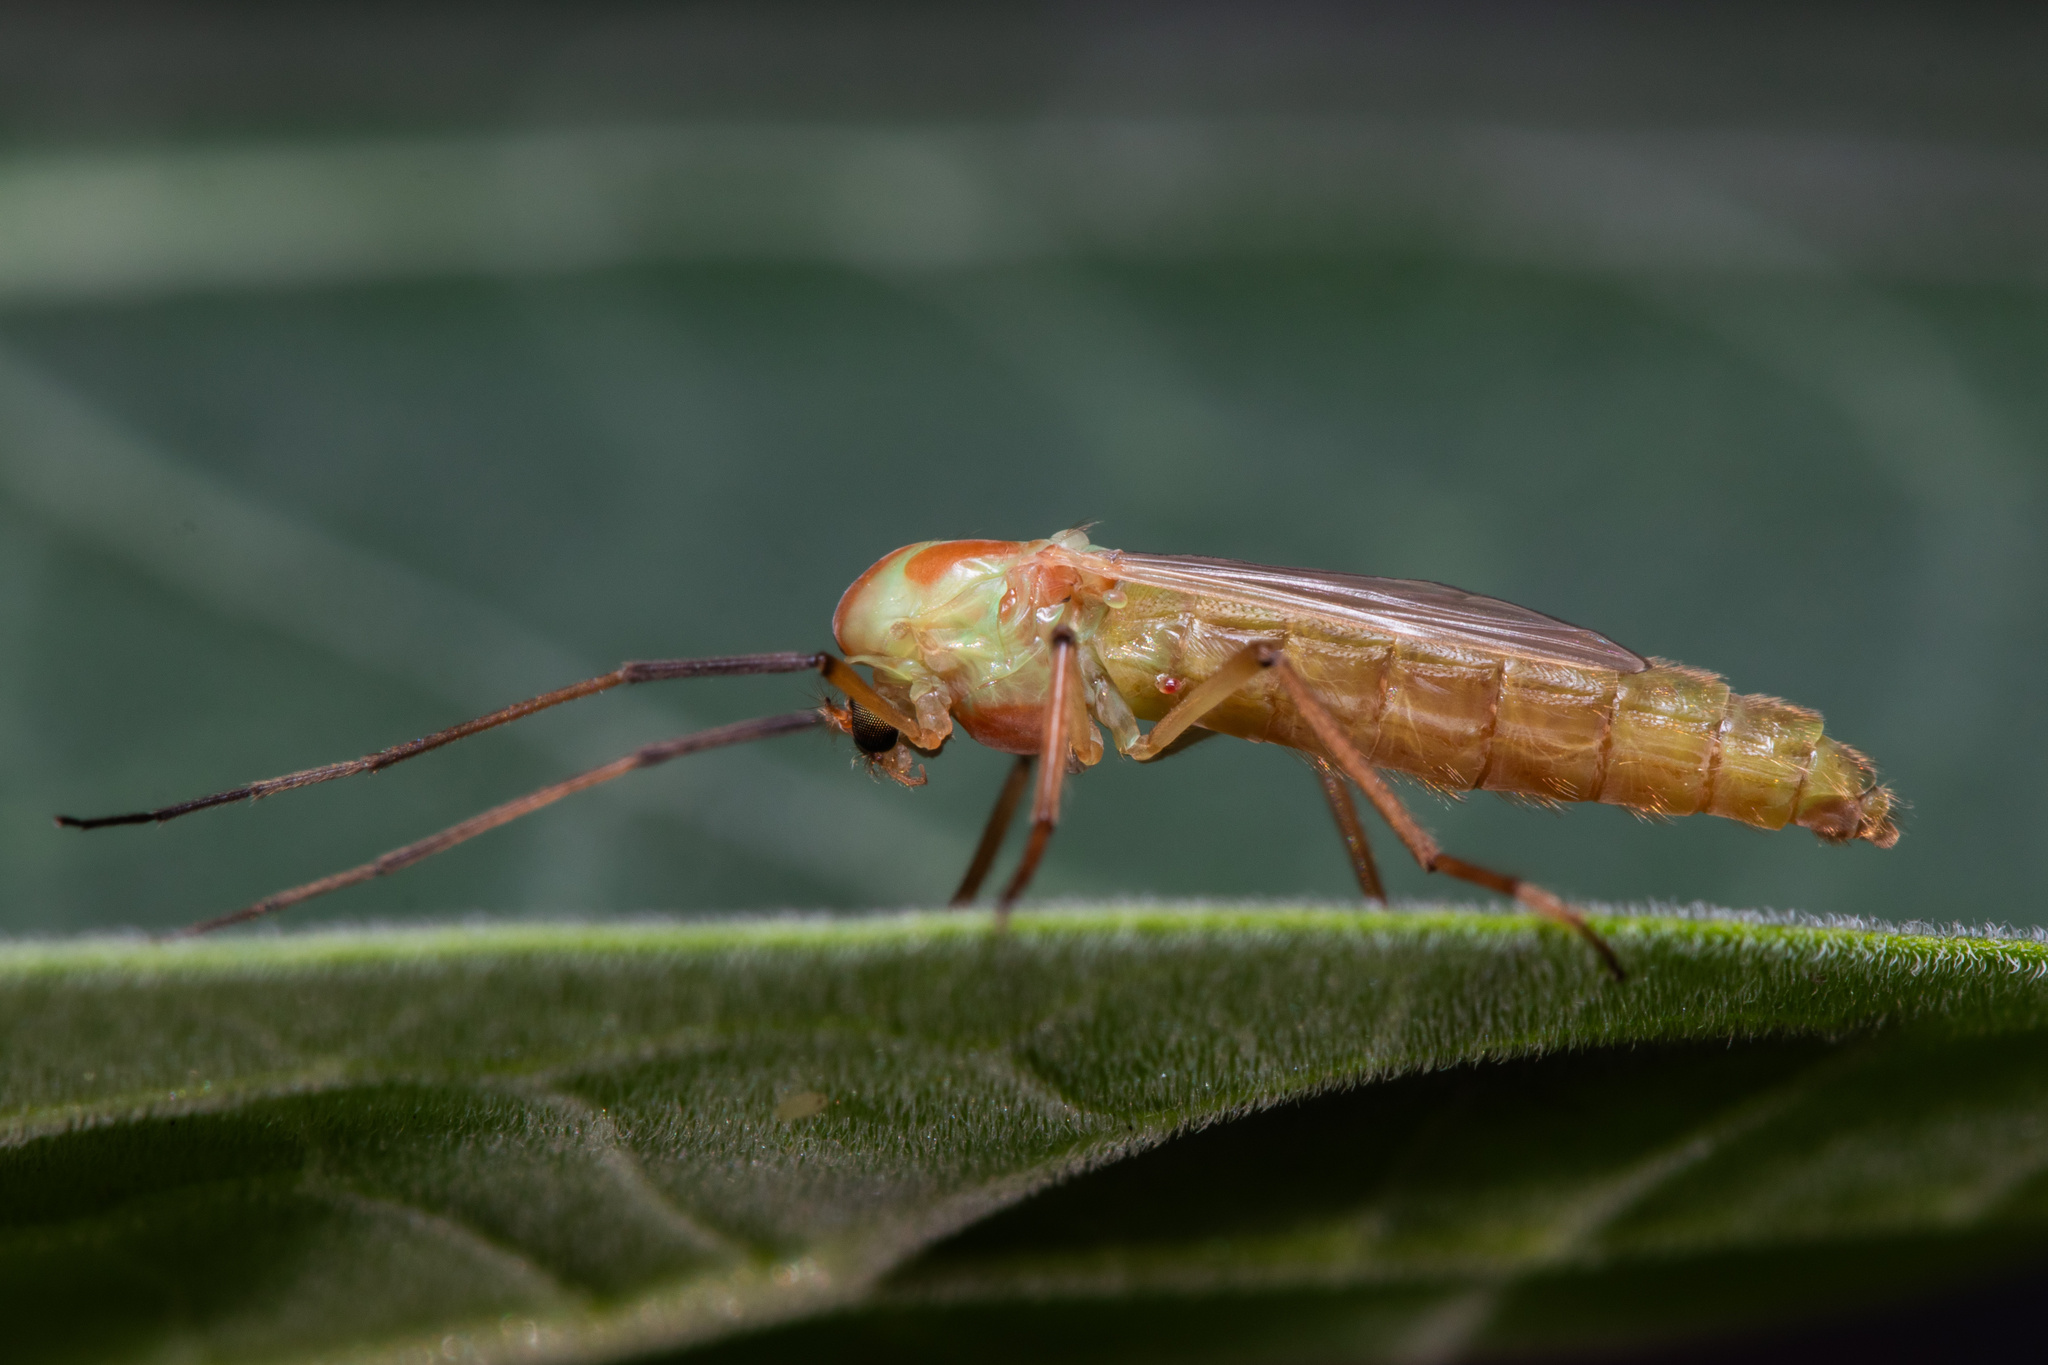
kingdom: Animalia
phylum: Arthropoda
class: Insecta
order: Diptera
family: Chironomidae
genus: Axarus
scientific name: Axarus
